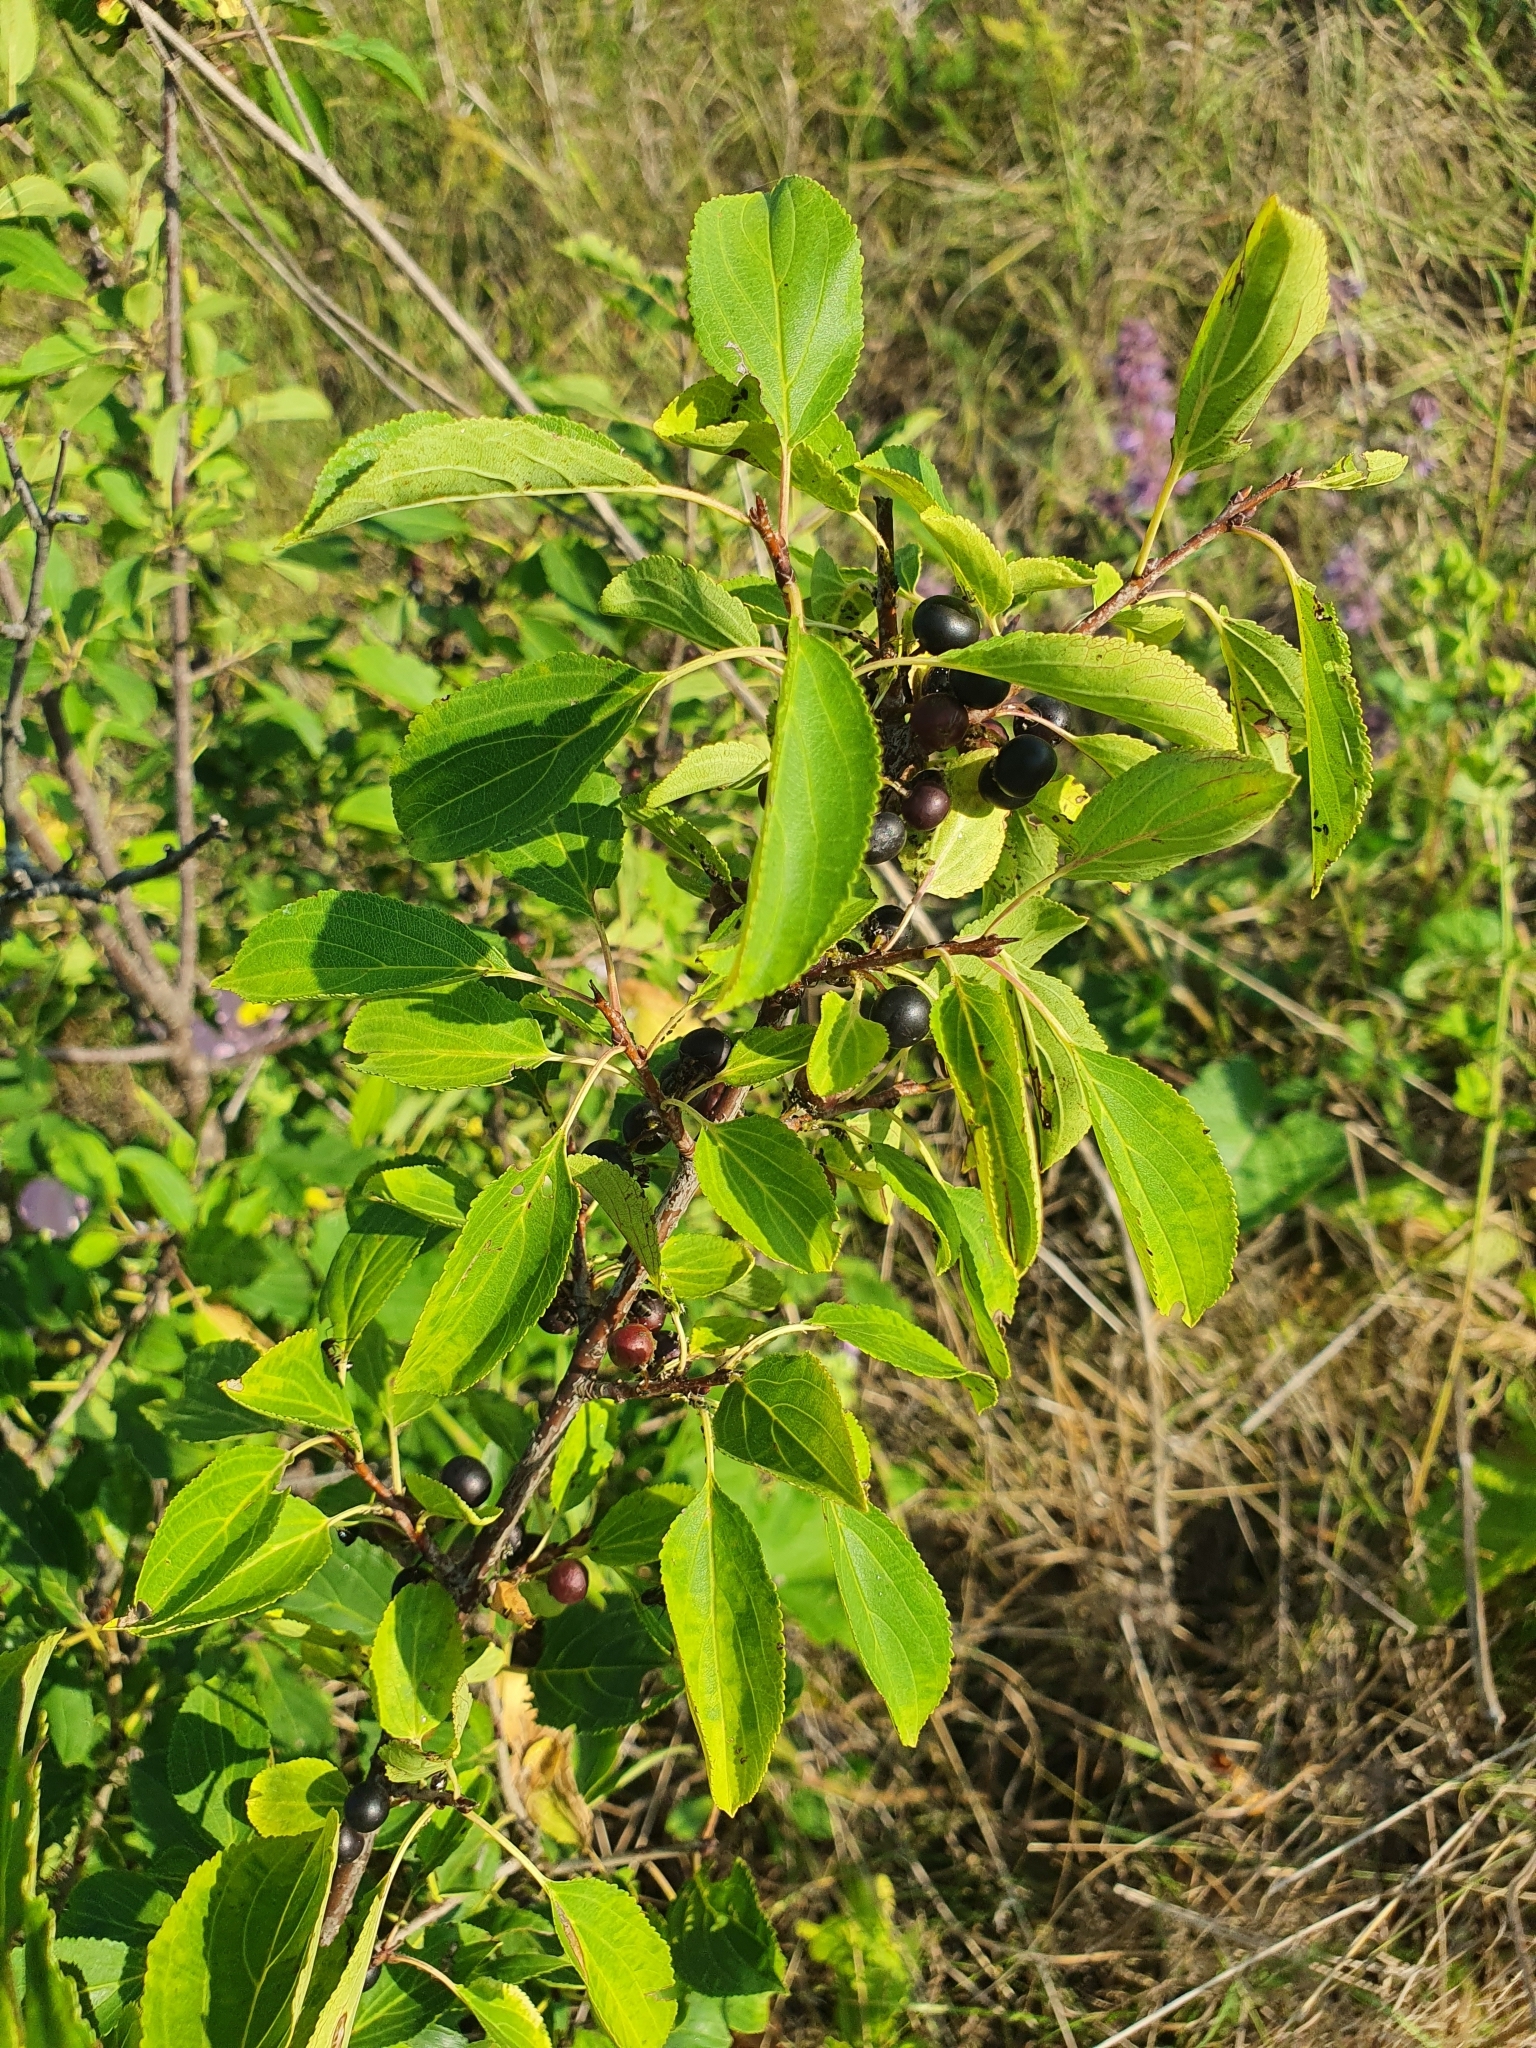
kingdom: Plantae
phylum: Tracheophyta
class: Magnoliopsida
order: Rosales
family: Rhamnaceae
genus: Rhamnus
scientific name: Rhamnus cathartica
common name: Common buckthorn
